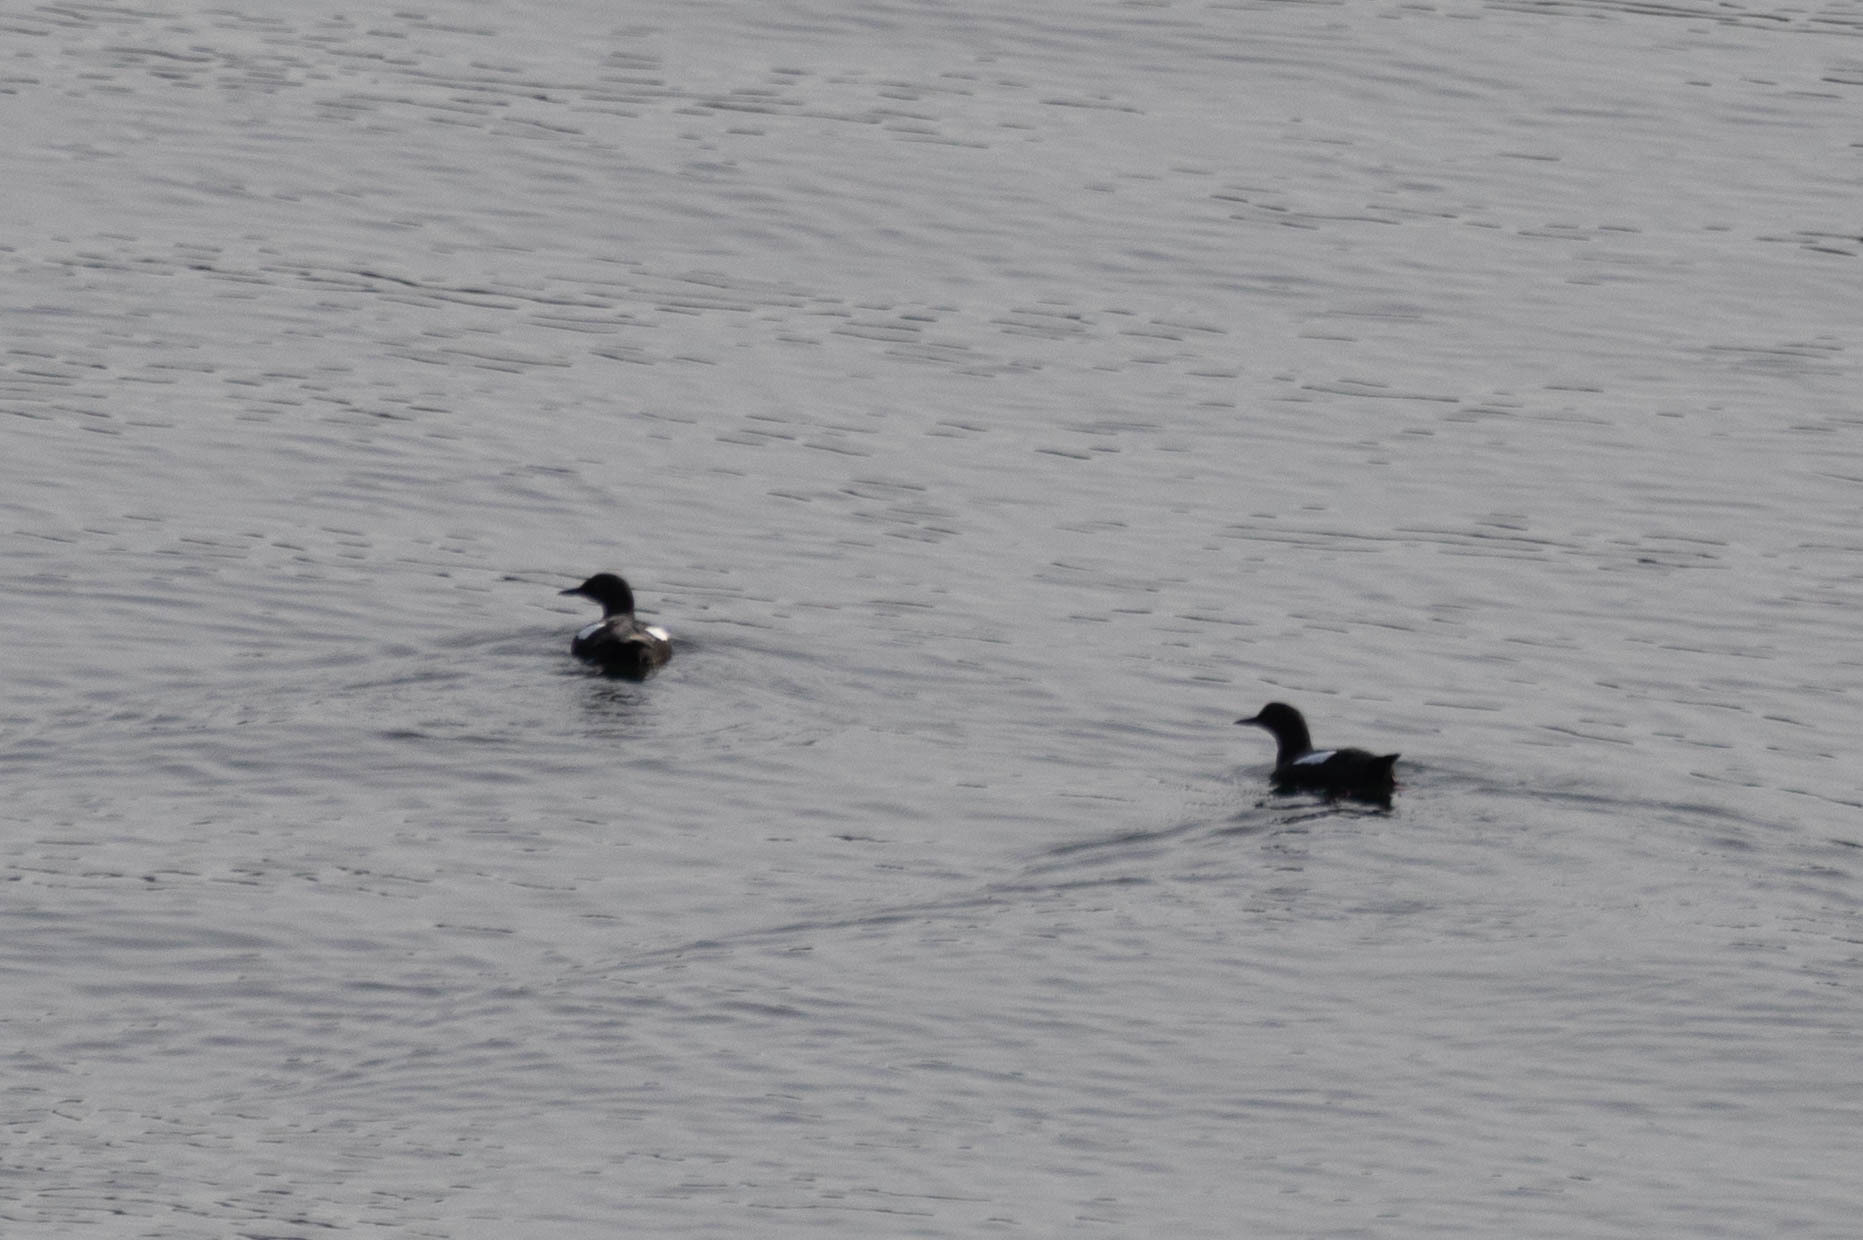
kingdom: Animalia
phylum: Chordata
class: Aves
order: Charadriiformes
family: Alcidae
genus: Cepphus
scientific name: Cepphus columba
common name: Pigeon guillemot
